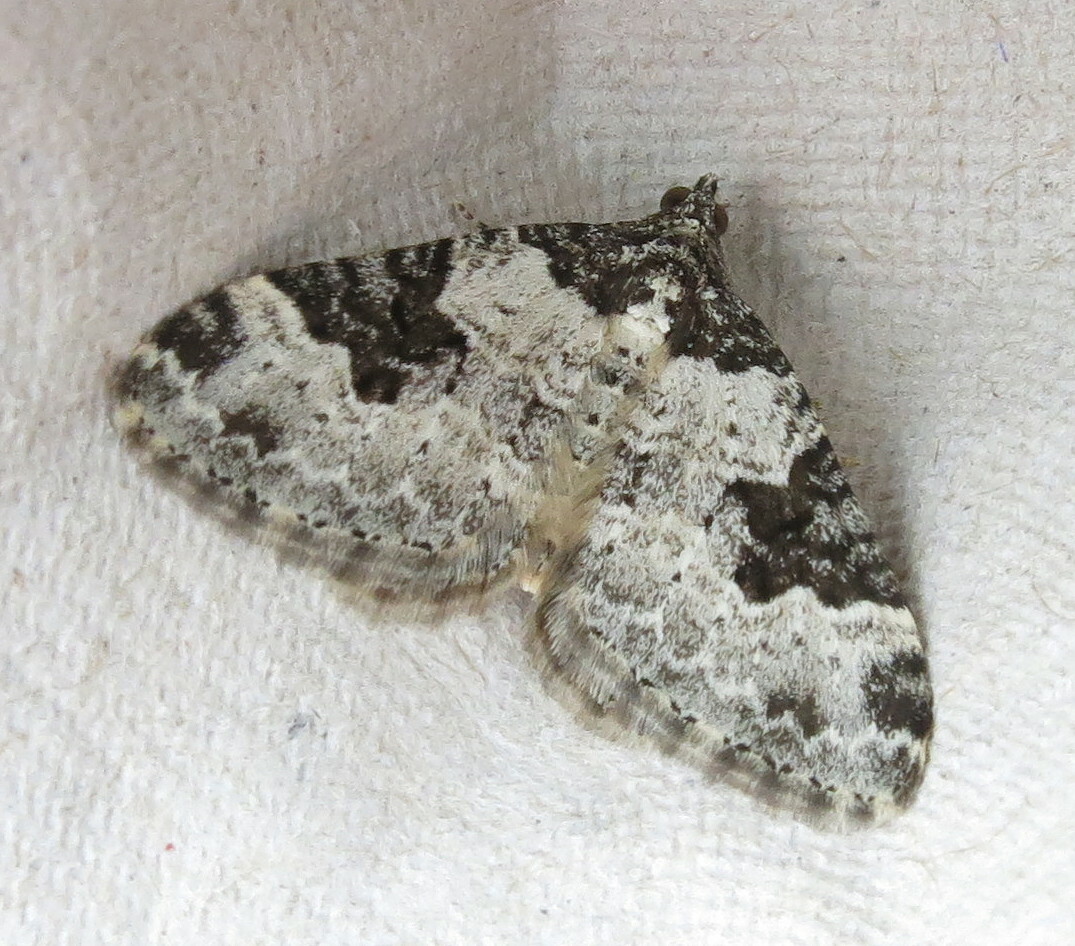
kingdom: Animalia
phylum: Arthropoda
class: Insecta
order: Lepidoptera
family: Geometridae
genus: Xanthorhoe
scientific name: Xanthorhoe fluctuata
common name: Garden carpet
